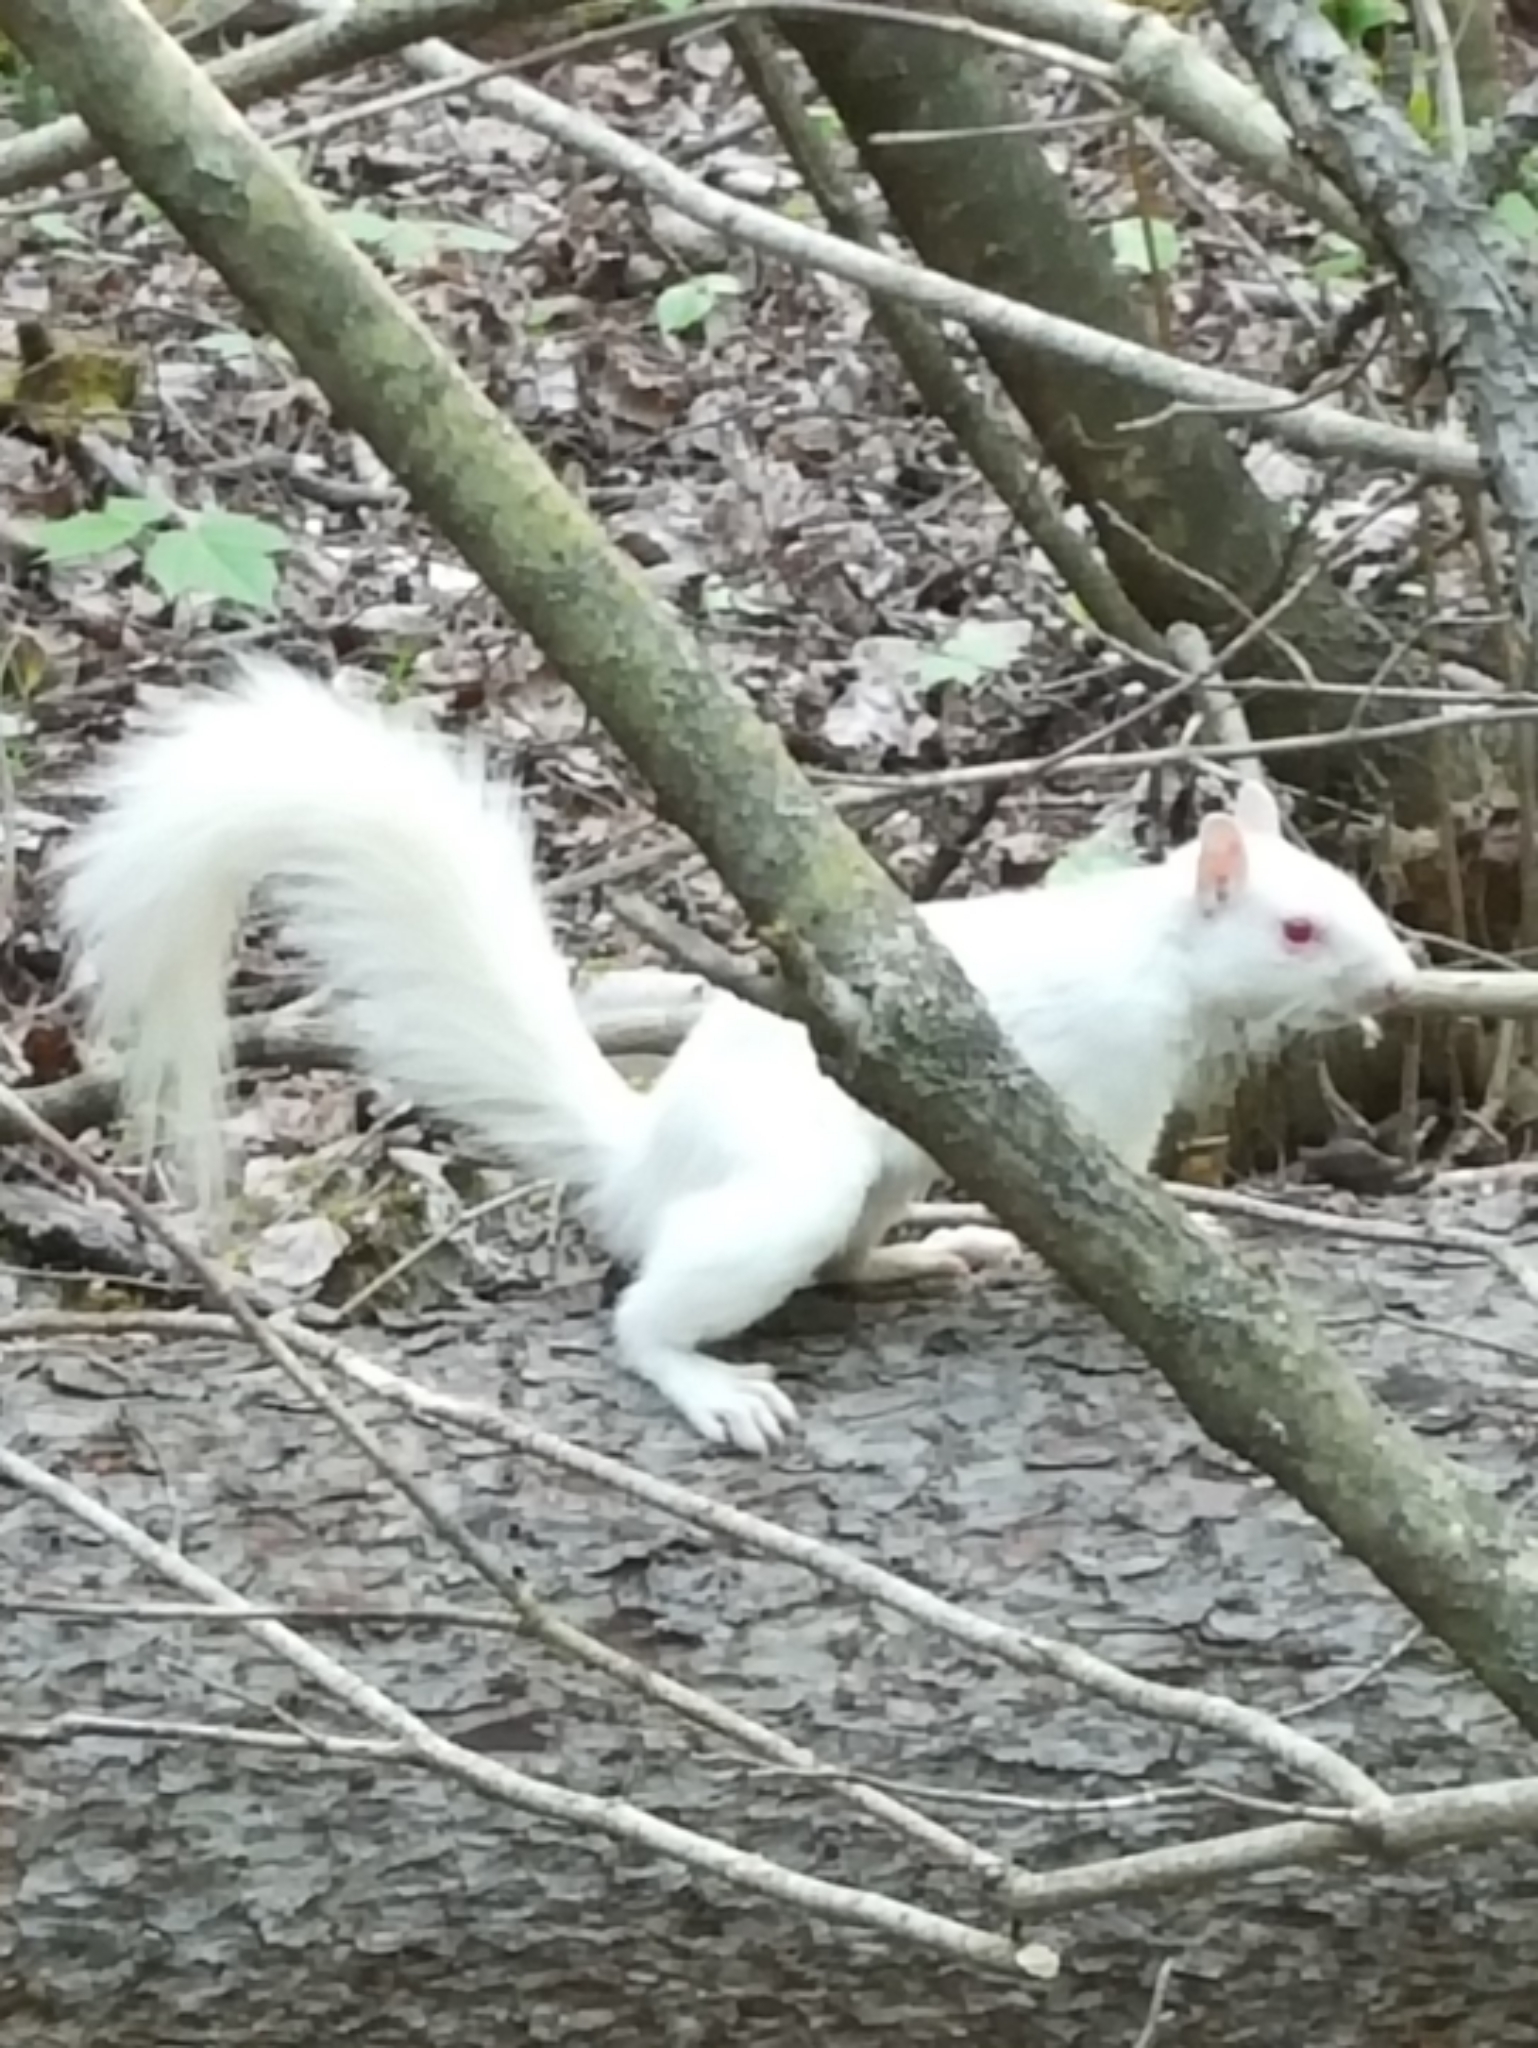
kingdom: Animalia
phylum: Chordata
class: Mammalia
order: Rodentia
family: Sciuridae
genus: Sciurus
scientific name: Sciurus carolinensis
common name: Eastern gray squirrel
